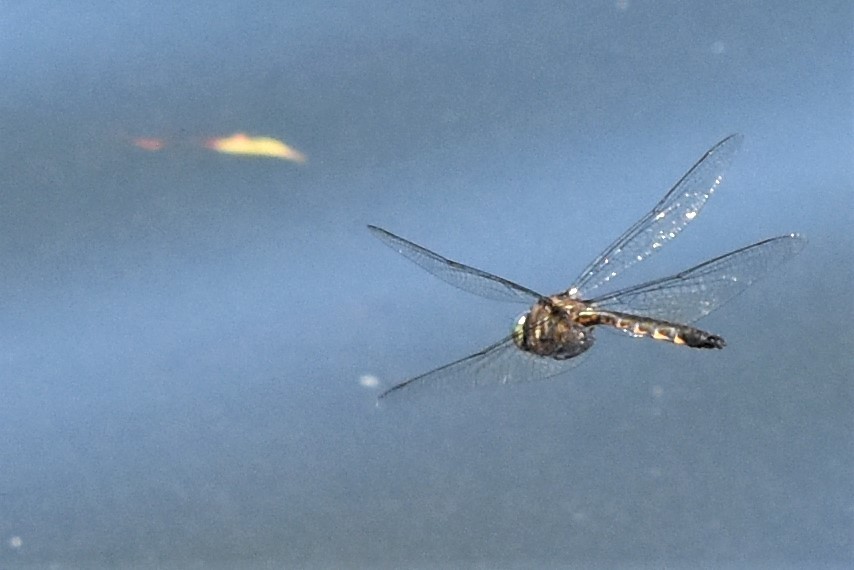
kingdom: Animalia
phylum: Arthropoda
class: Insecta
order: Odonata
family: Corduliidae
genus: Hemicordulia
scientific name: Hemicordulia armstrongi
